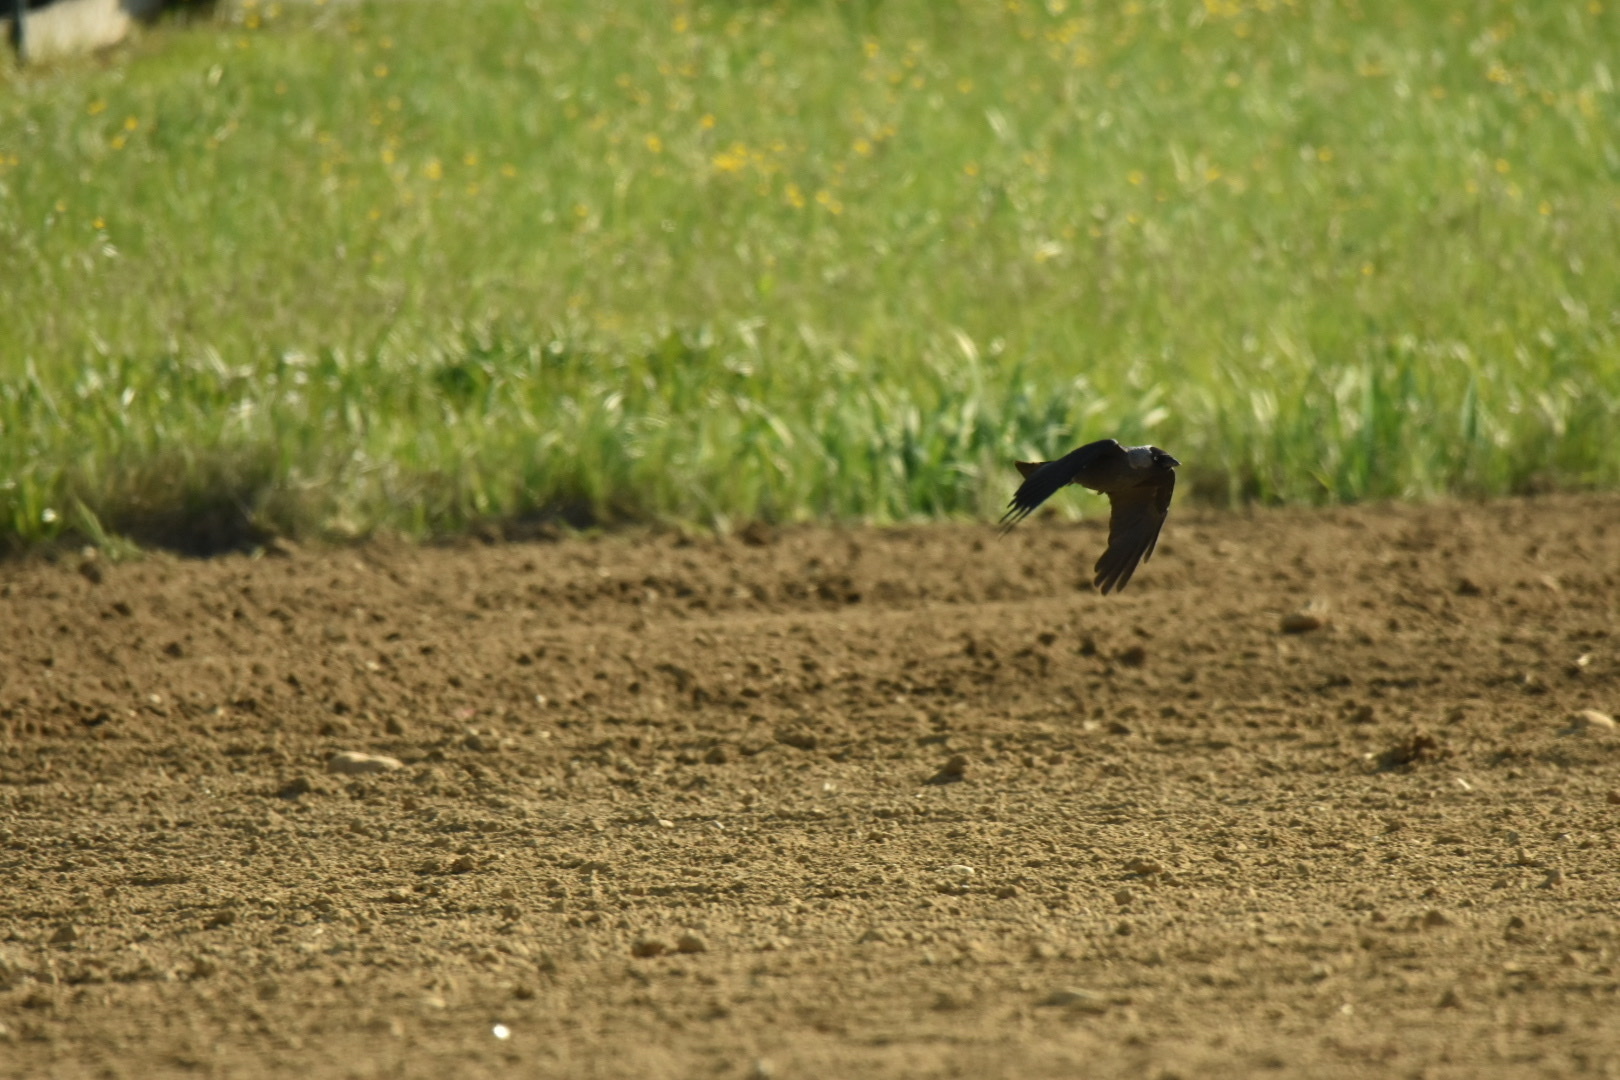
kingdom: Animalia
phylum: Chordata
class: Aves
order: Passeriformes
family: Corvidae
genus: Coloeus
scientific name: Coloeus monedula
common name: Western jackdaw
